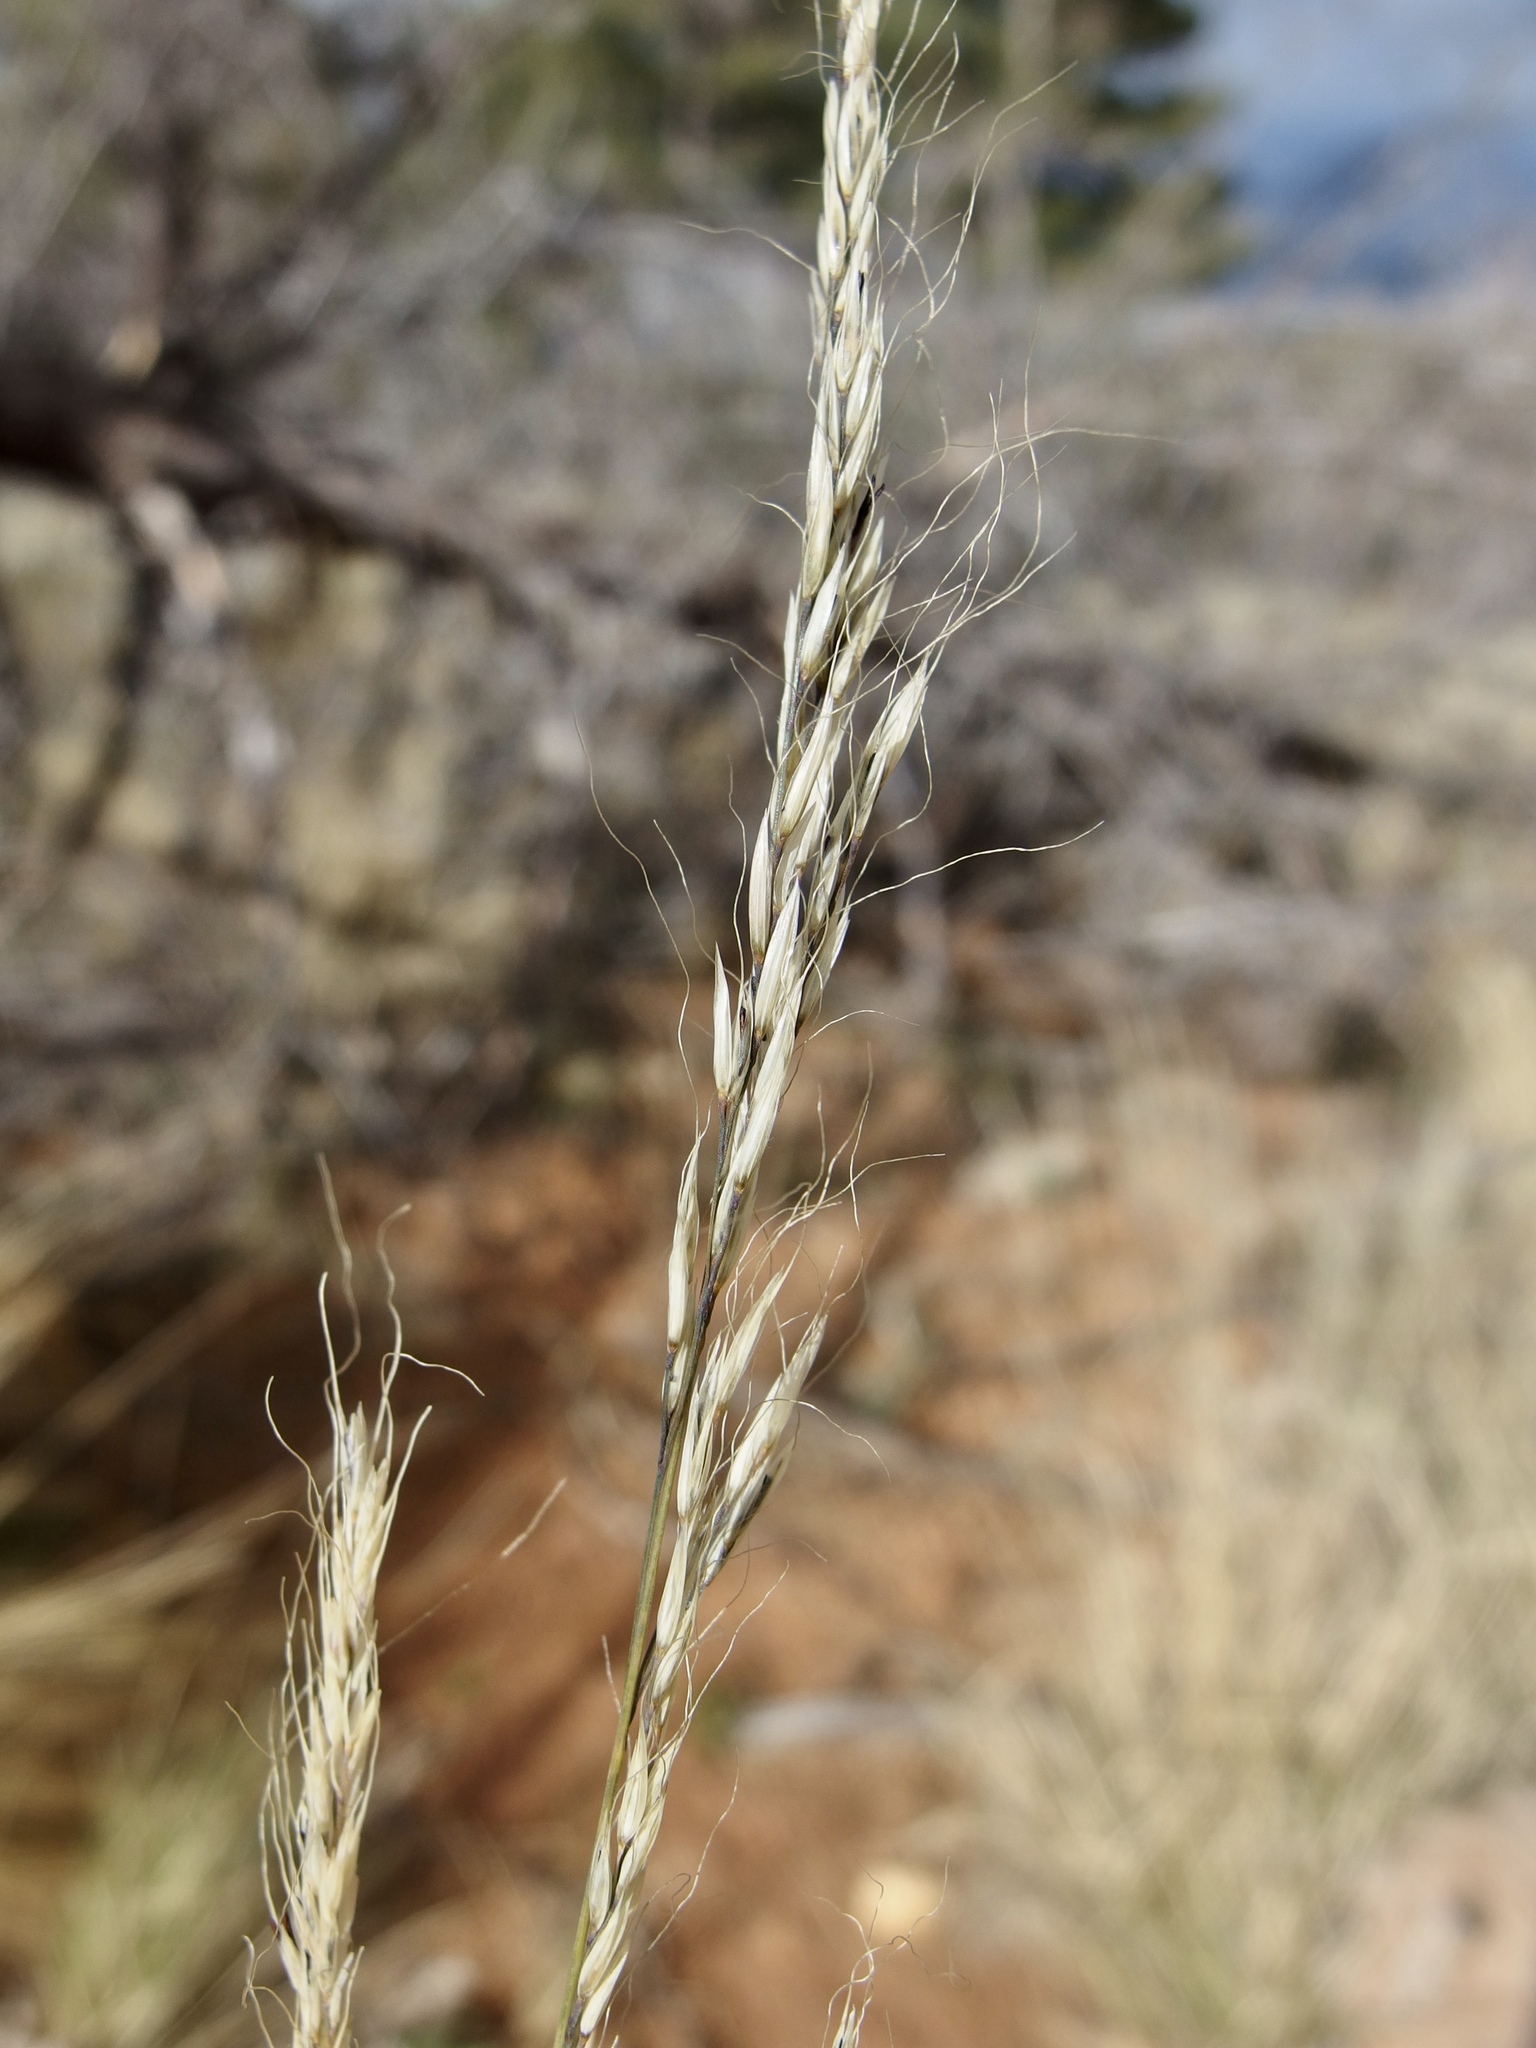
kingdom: Plantae
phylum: Tracheophyta
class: Liliopsida
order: Poales
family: Poaceae
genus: Muhlenbergia
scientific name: Muhlenbergia straminea
